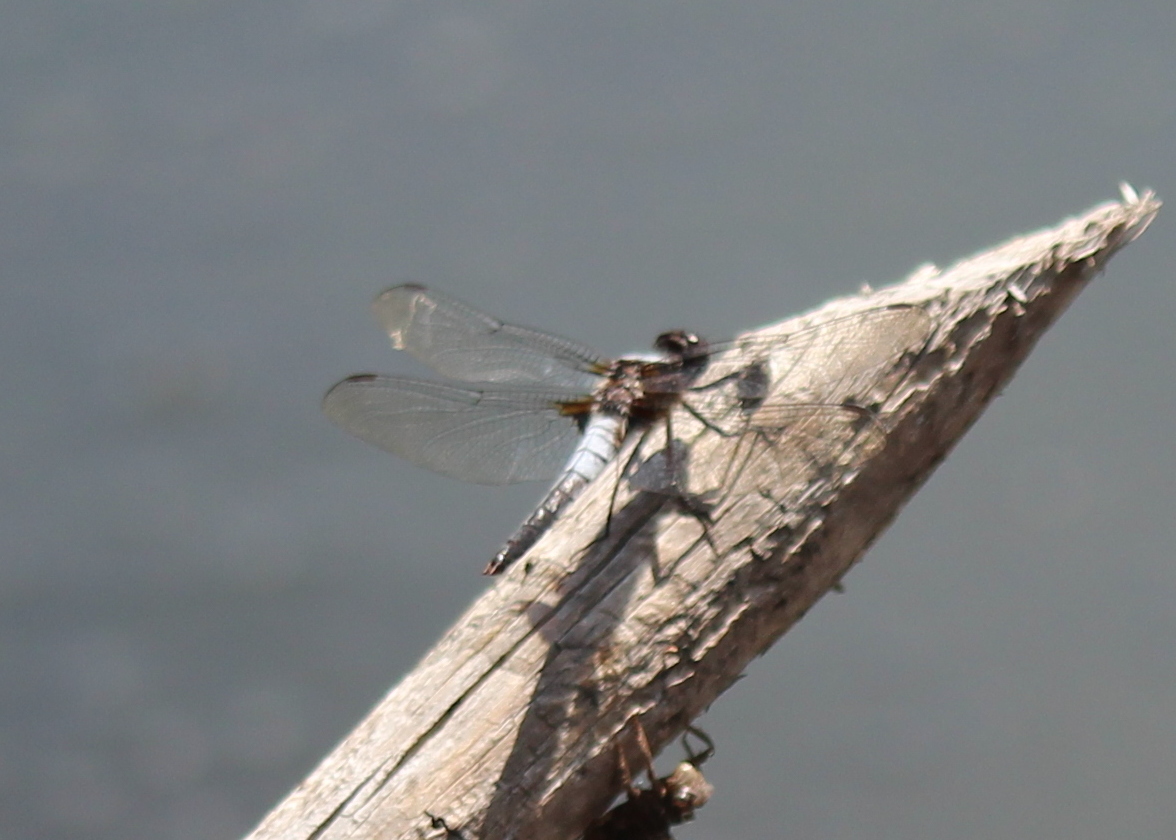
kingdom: Animalia
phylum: Arthropoda
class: Insecta
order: Odonata
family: Libellulidae
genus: Ladona
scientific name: Ladona julia
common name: Chalk-fronted corporal
